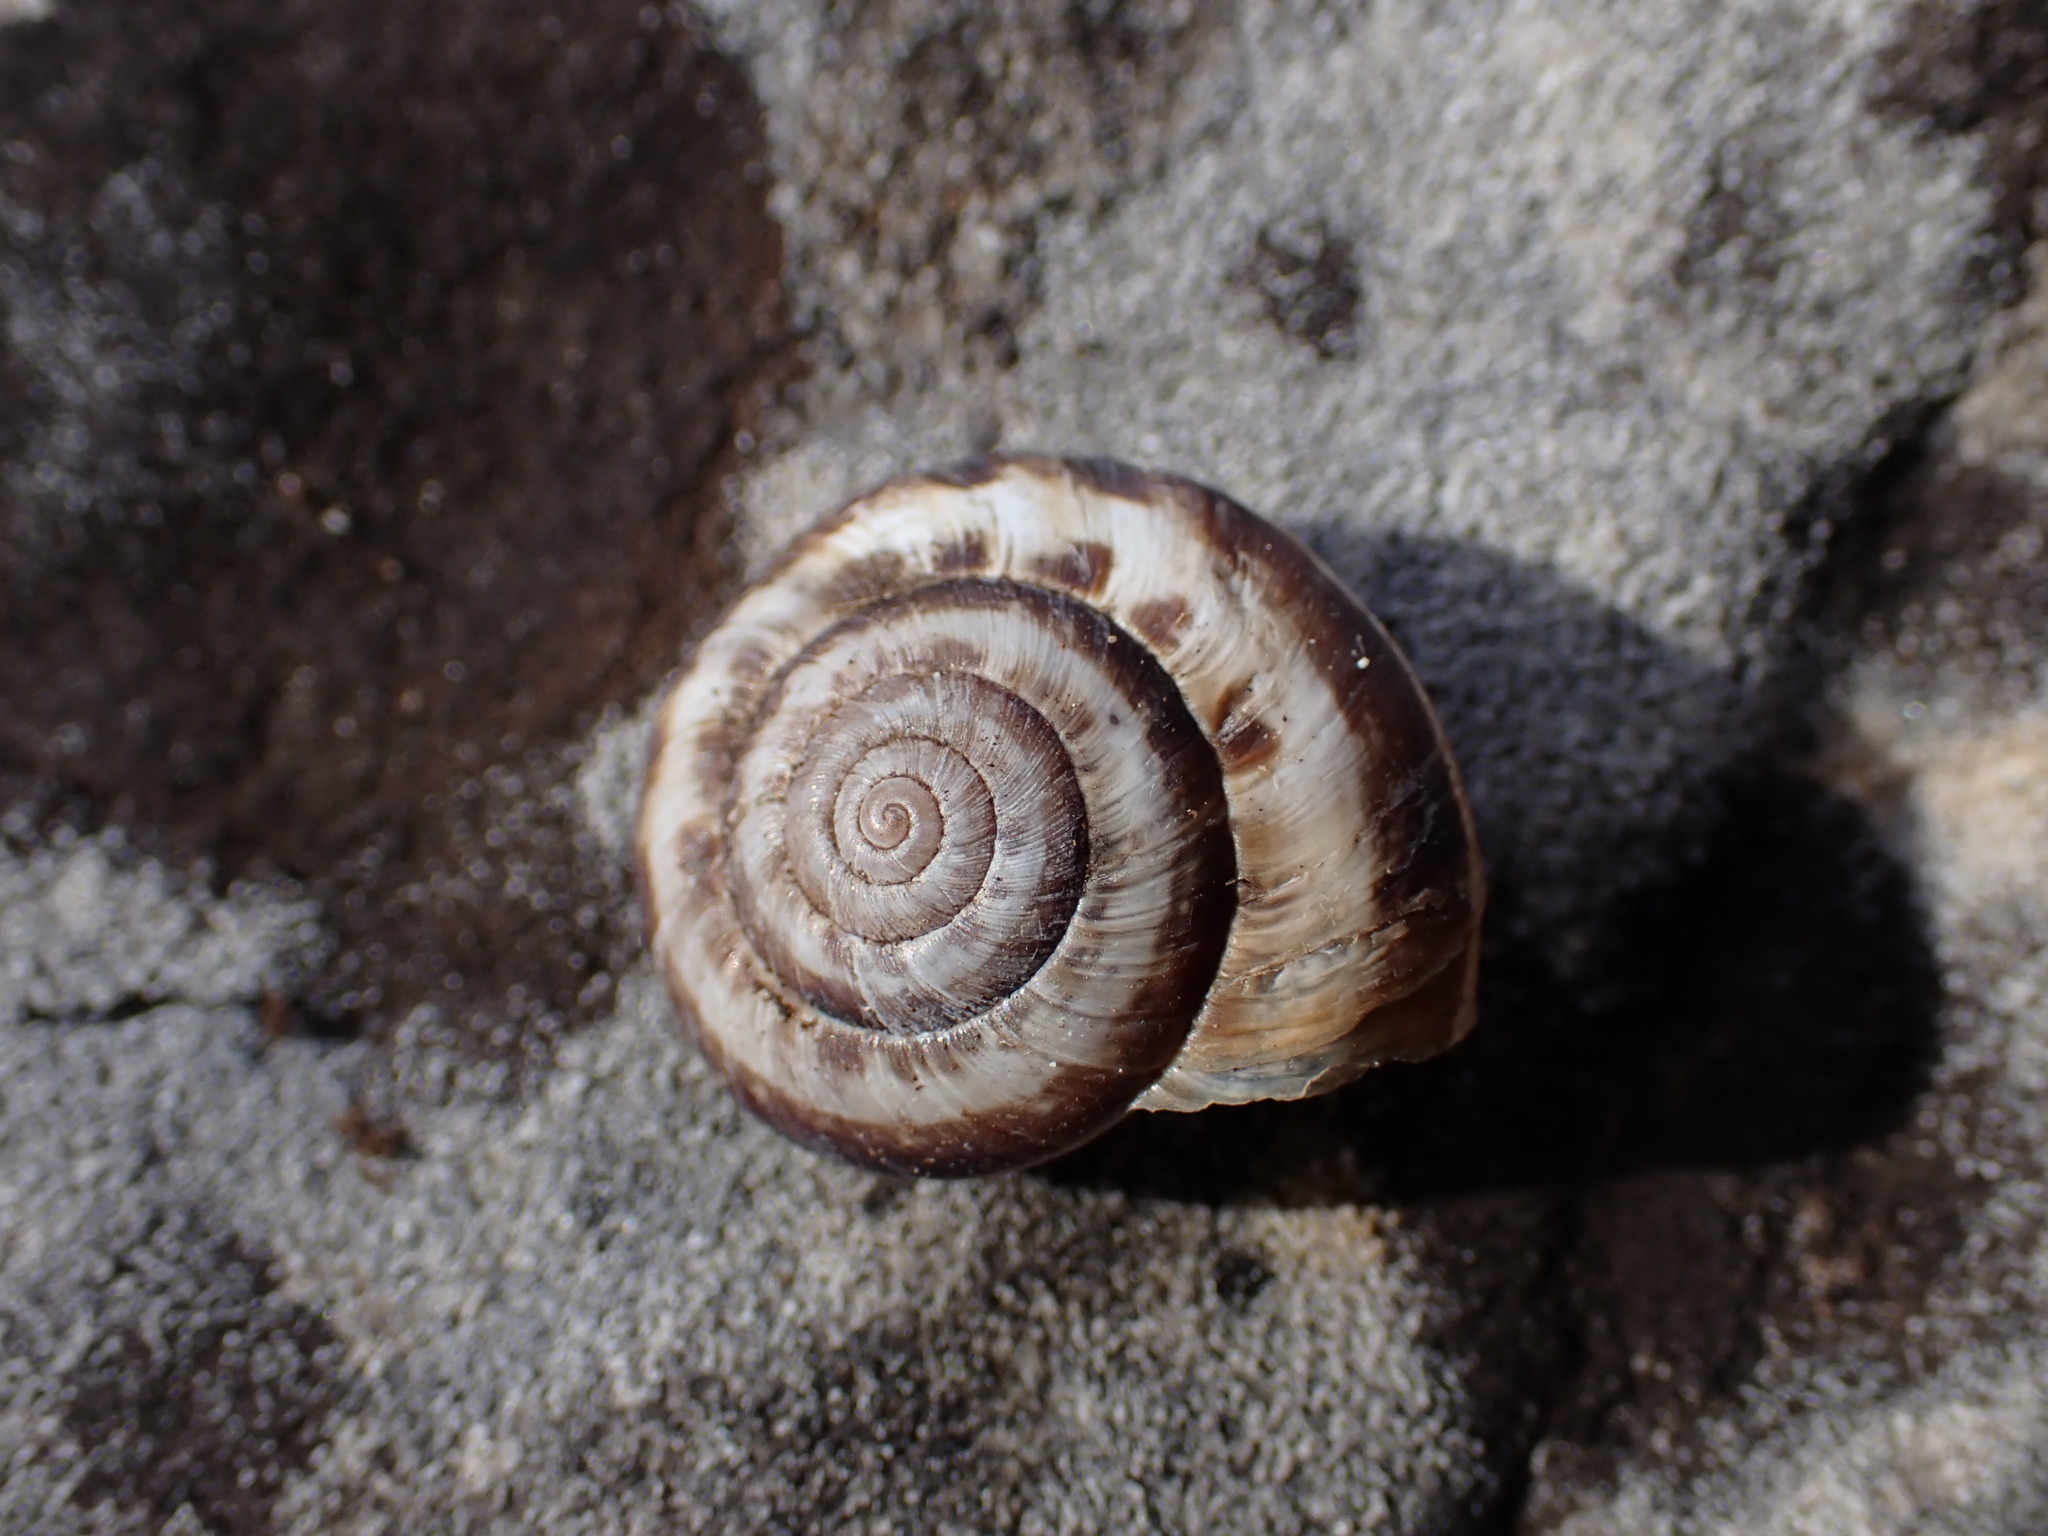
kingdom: Animalia
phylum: Mollusca
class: Gastropoda
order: Stylommatophora
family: Geomitridae
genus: Xerosecta
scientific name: Xerosecta cespitum
